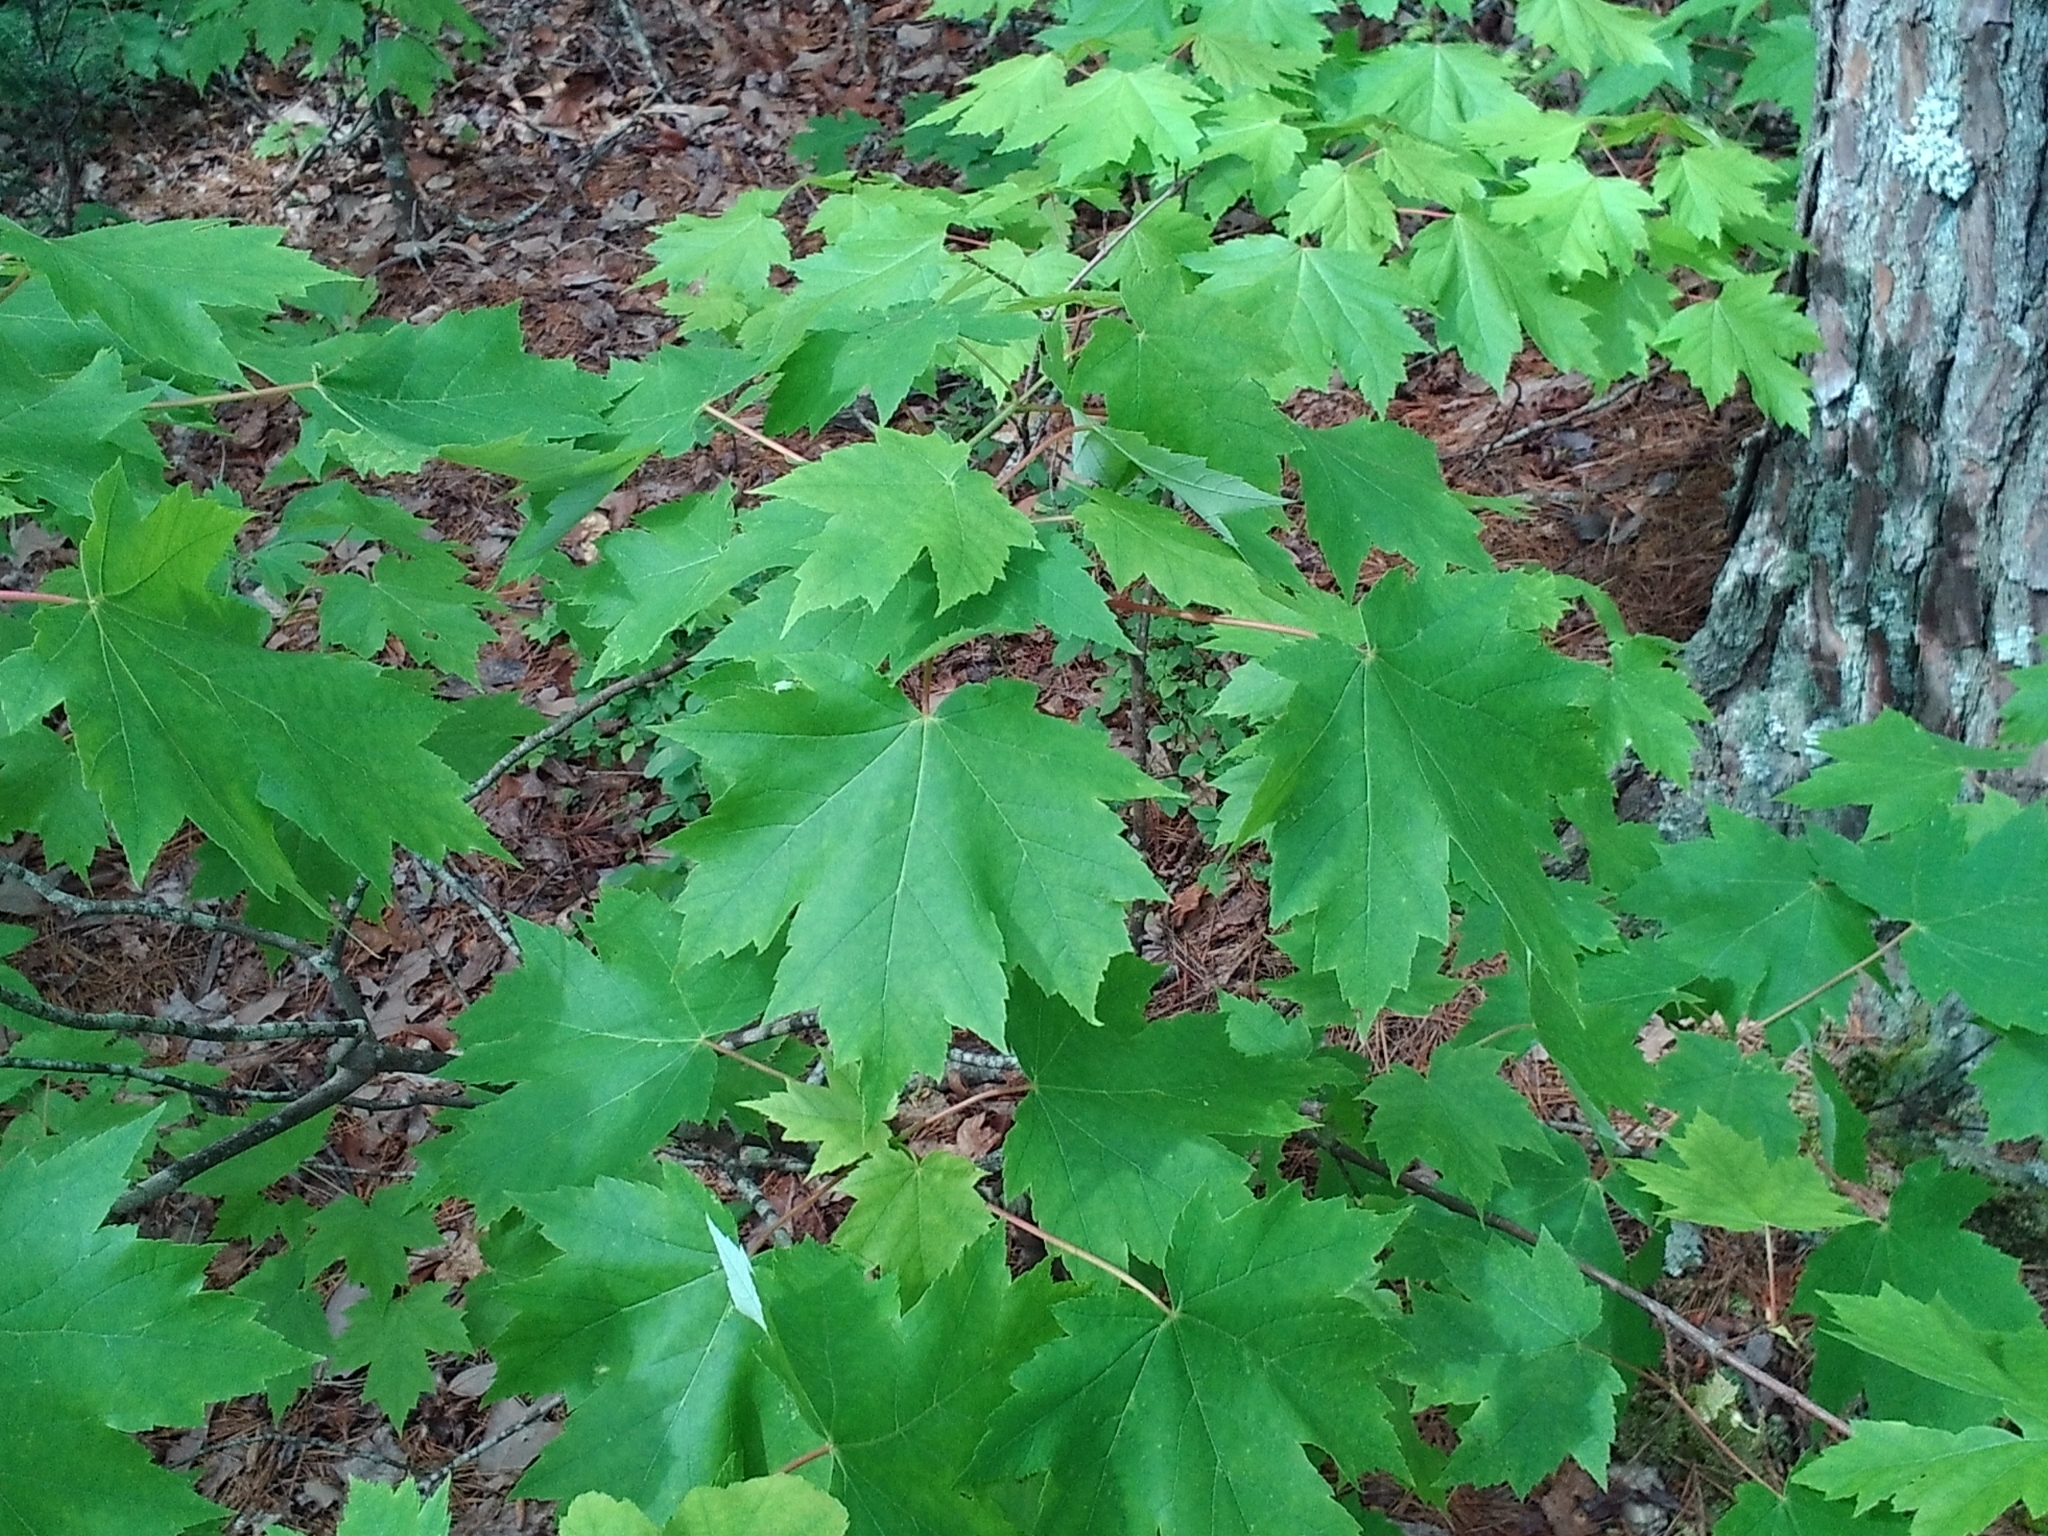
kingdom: Plantae
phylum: Tracheophyta
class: Magnoliopsida
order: Sapindales
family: Sapindaceae
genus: Acer
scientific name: Acer rubrum
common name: Red maple
